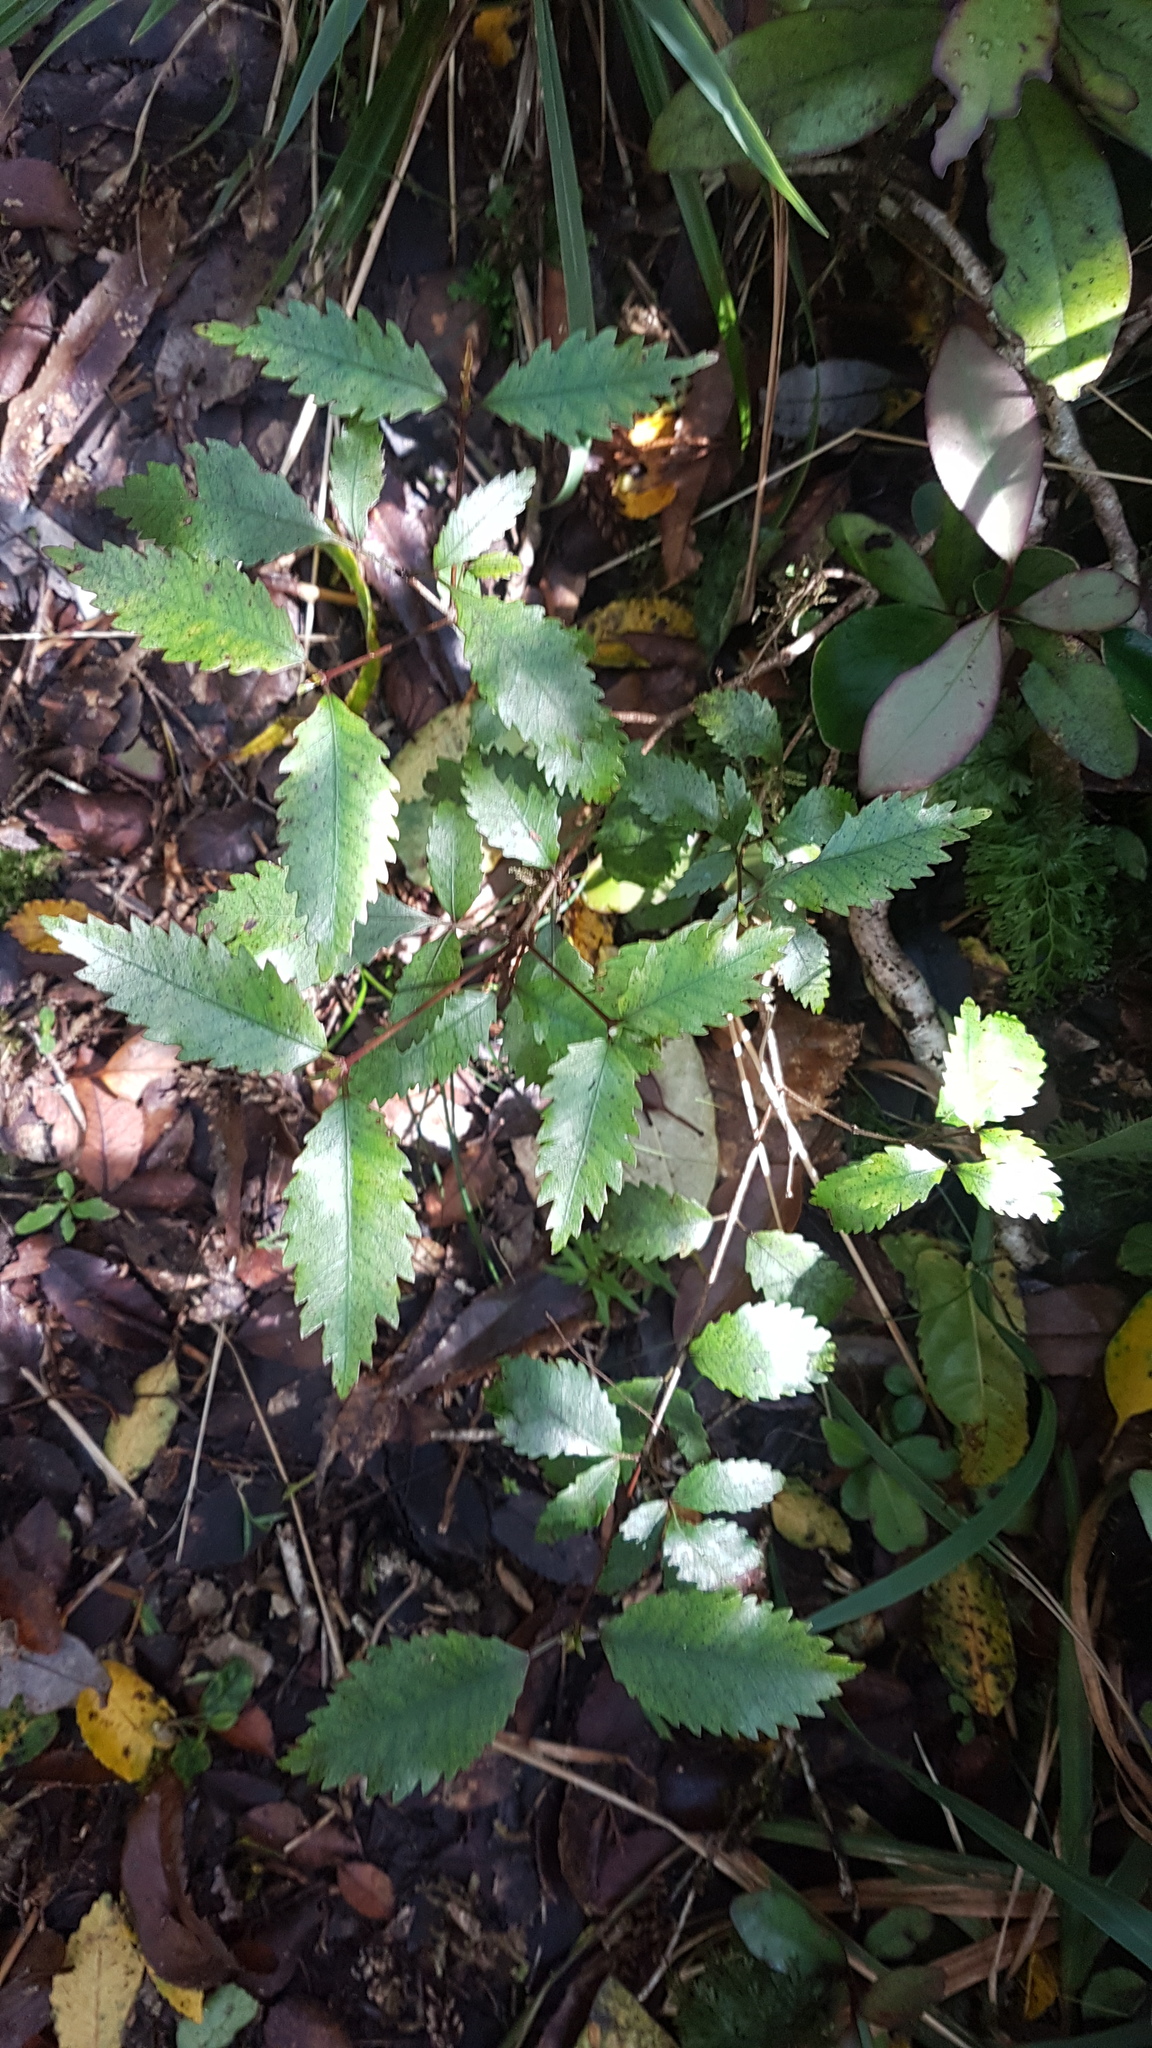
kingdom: Plantae
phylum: Tracheophyta
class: Magnoliopsida
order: Oxalidales
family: Cunoniaceae
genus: Pterophylla
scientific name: Pterophylla racemosa
